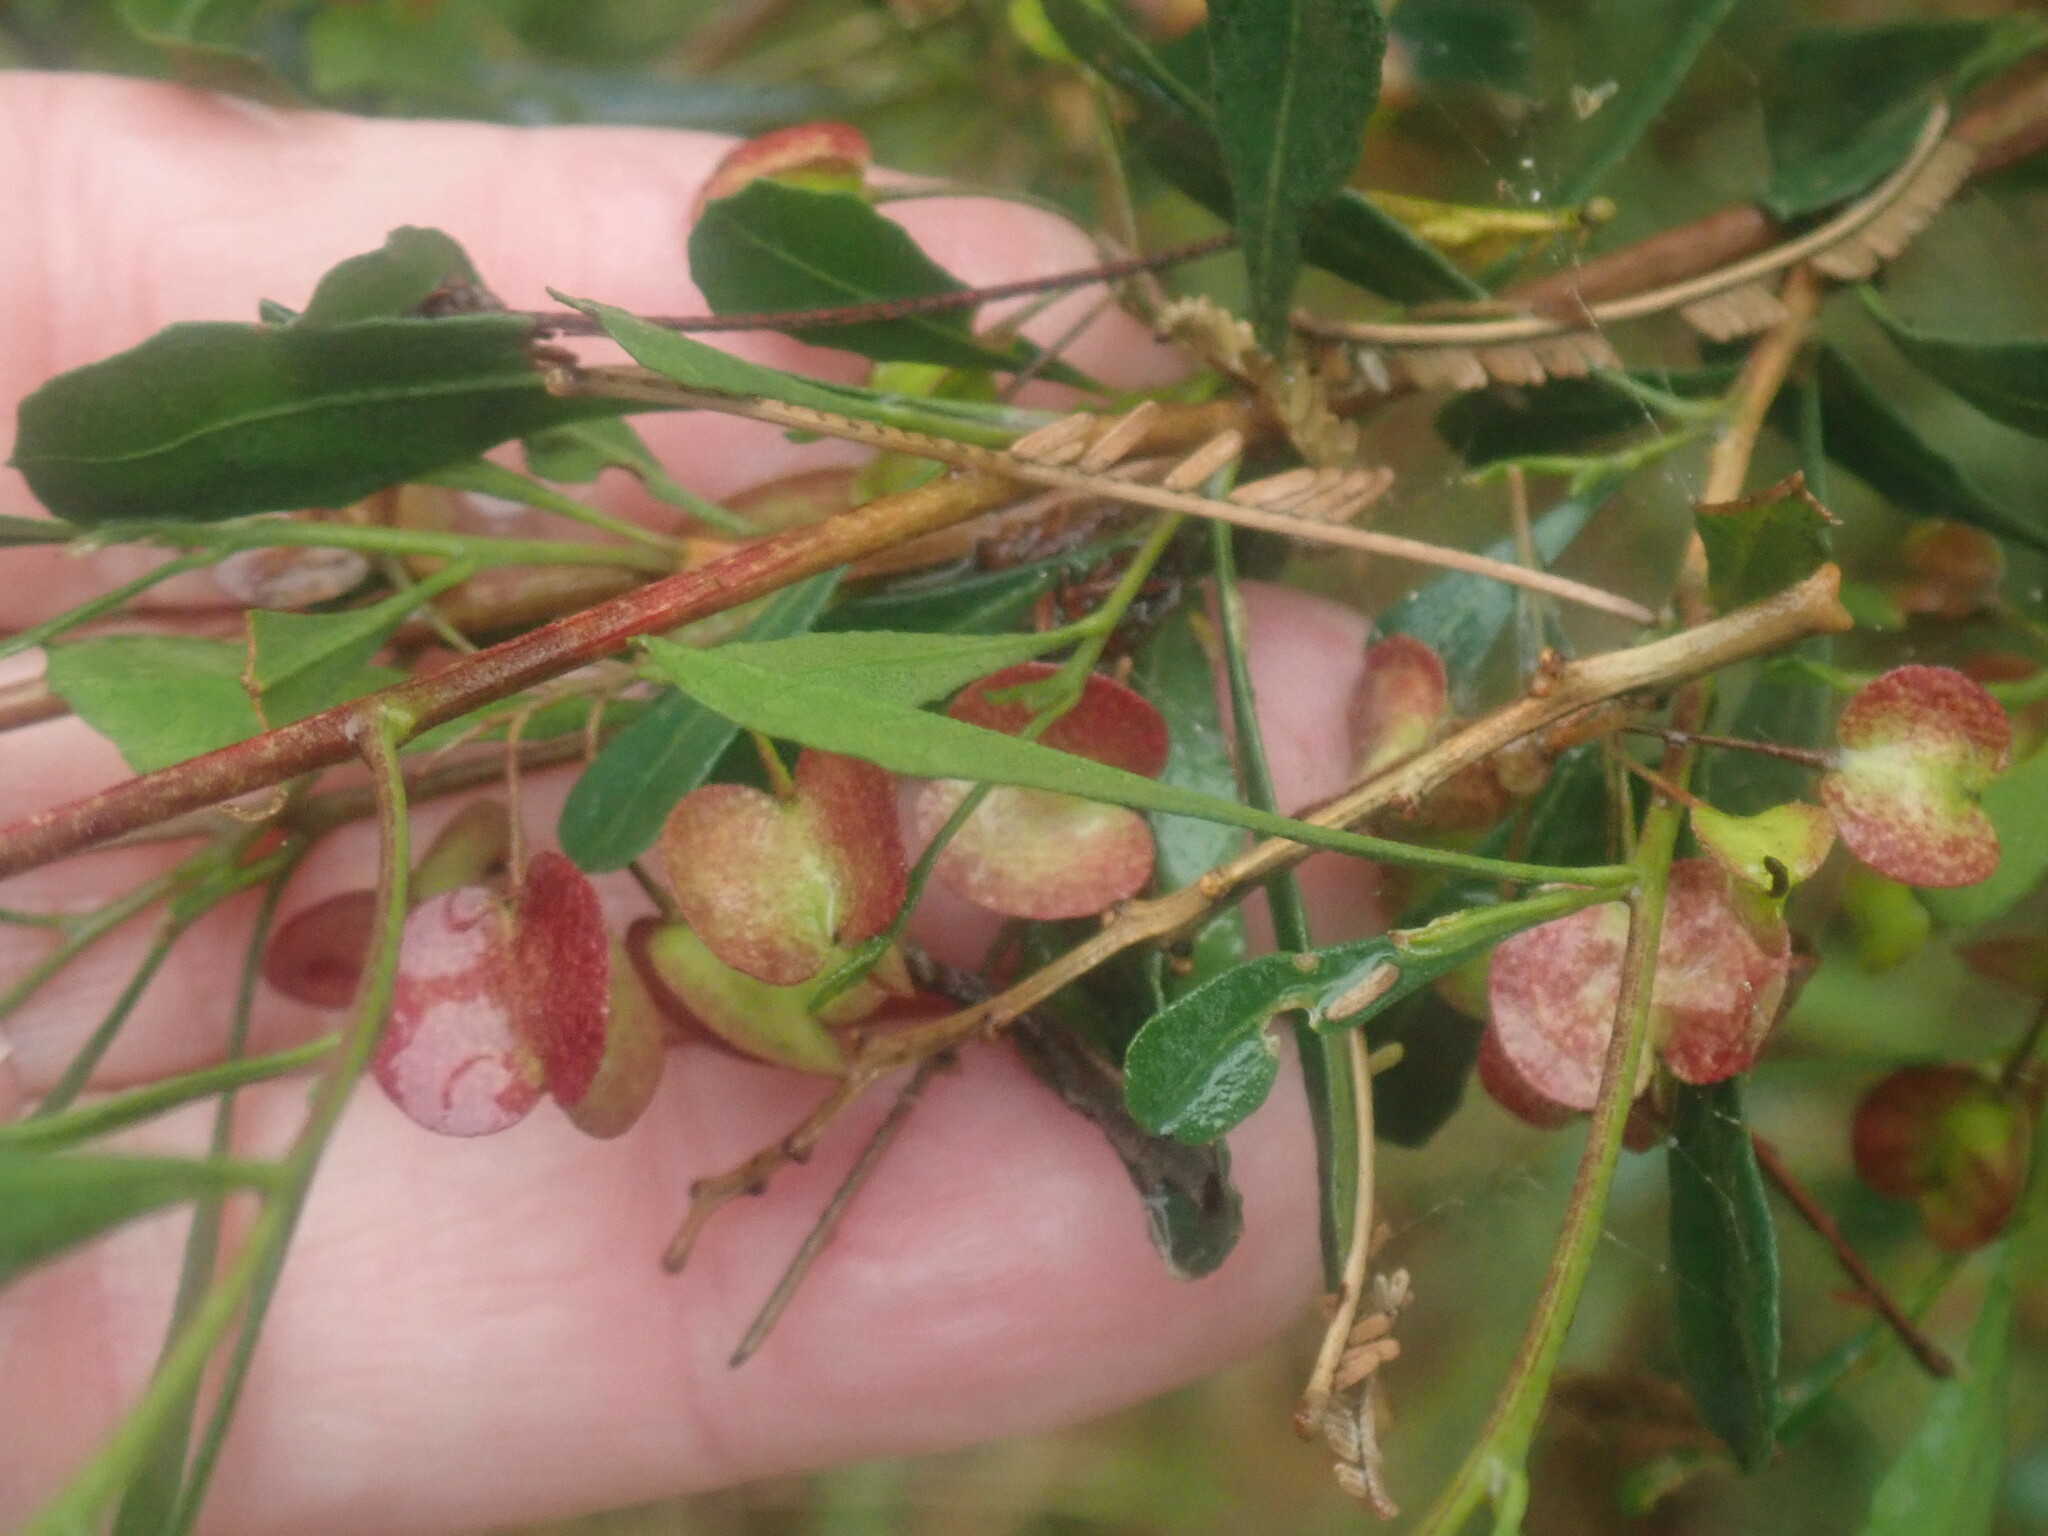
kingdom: Plantae
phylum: Tracheophyta
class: Magnoliopsida
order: Sapindales
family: Sapindaceae
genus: Dodonaea
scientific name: Dodonaea viscosa
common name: Hopbush
